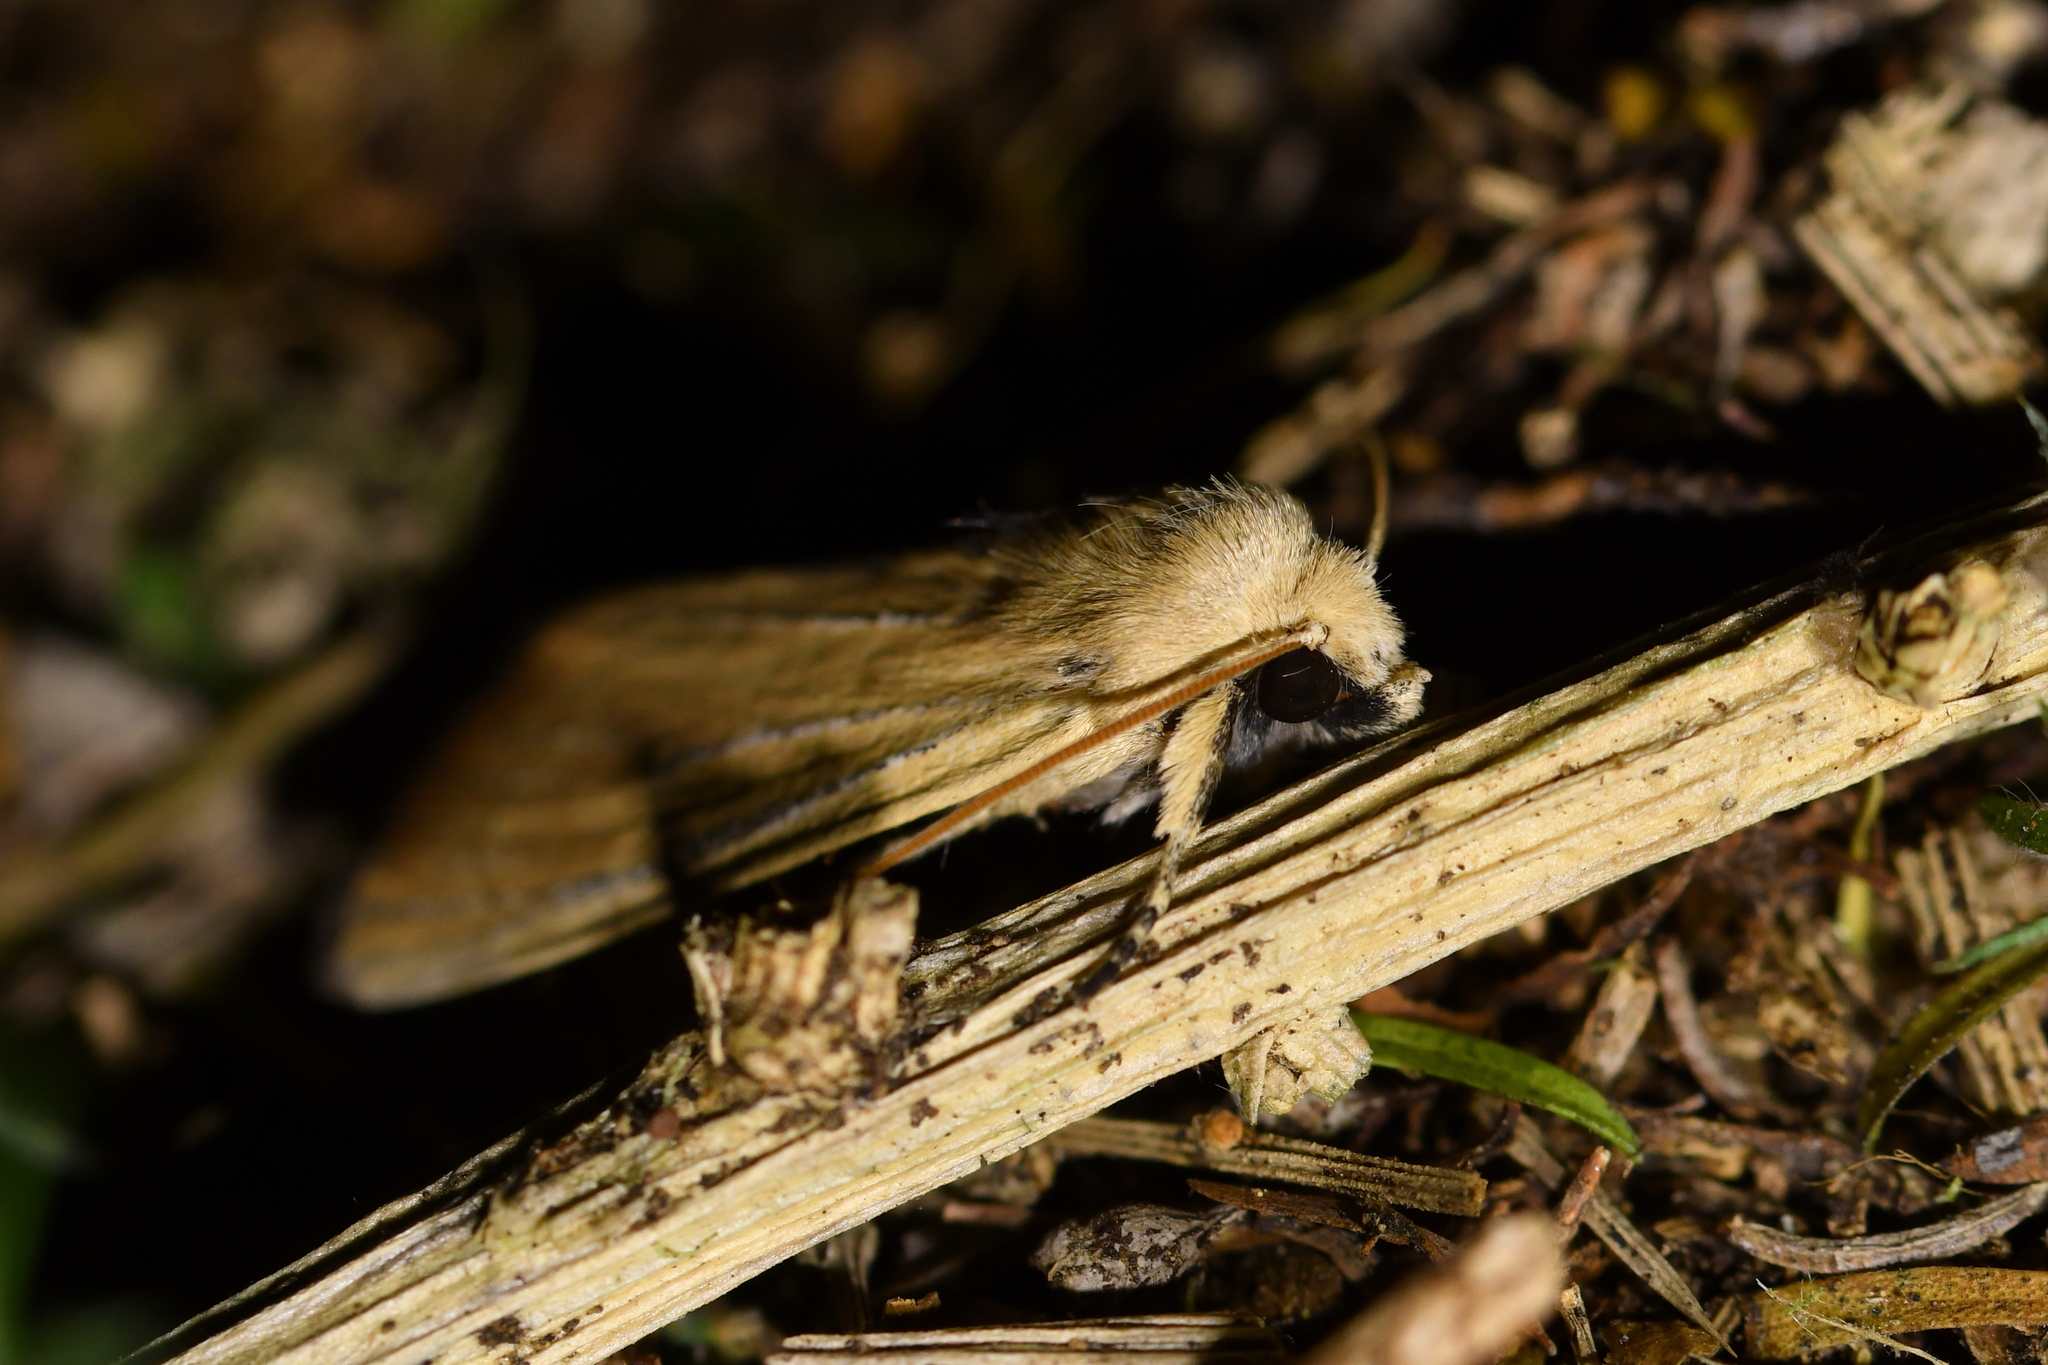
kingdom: Animalia
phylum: Arthropoda
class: Insecta
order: Lepidoptera
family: Noctuidae
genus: Ichneutica
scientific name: Ichneutica blenheimensis
